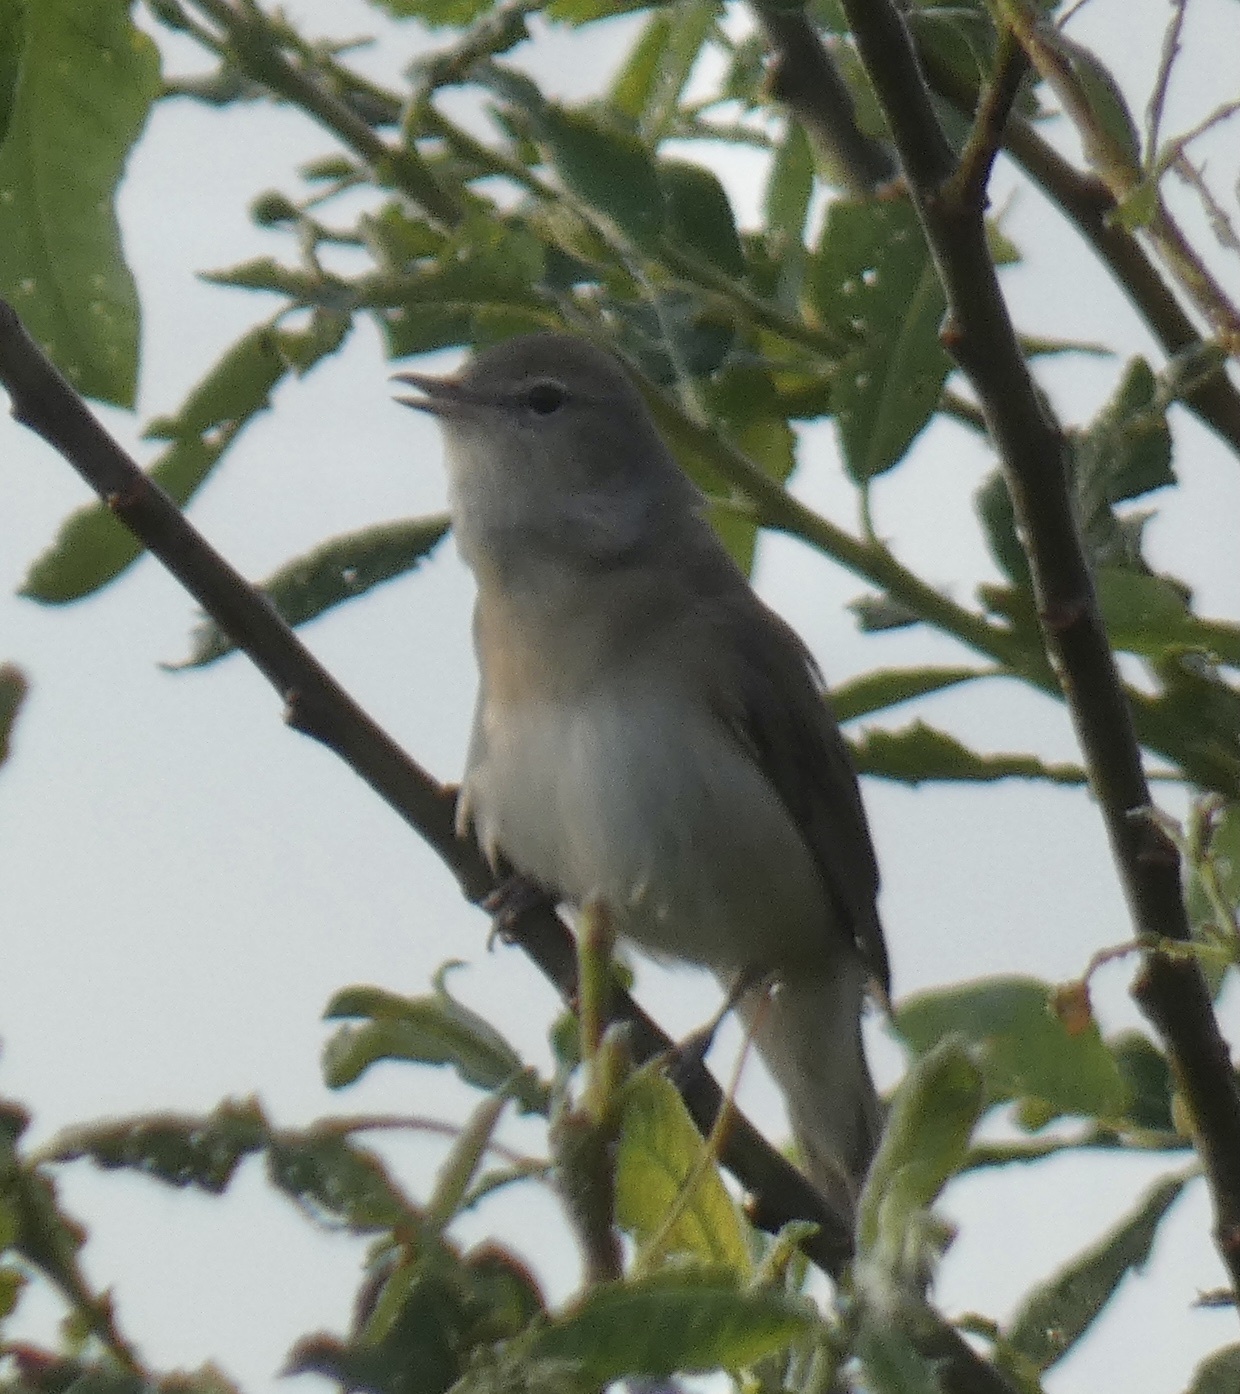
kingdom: Animalia
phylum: Chordata
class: Aves
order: Passeriformes
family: Sylviidae
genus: Sylvia
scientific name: Sylvia borin
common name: Garden warbler
